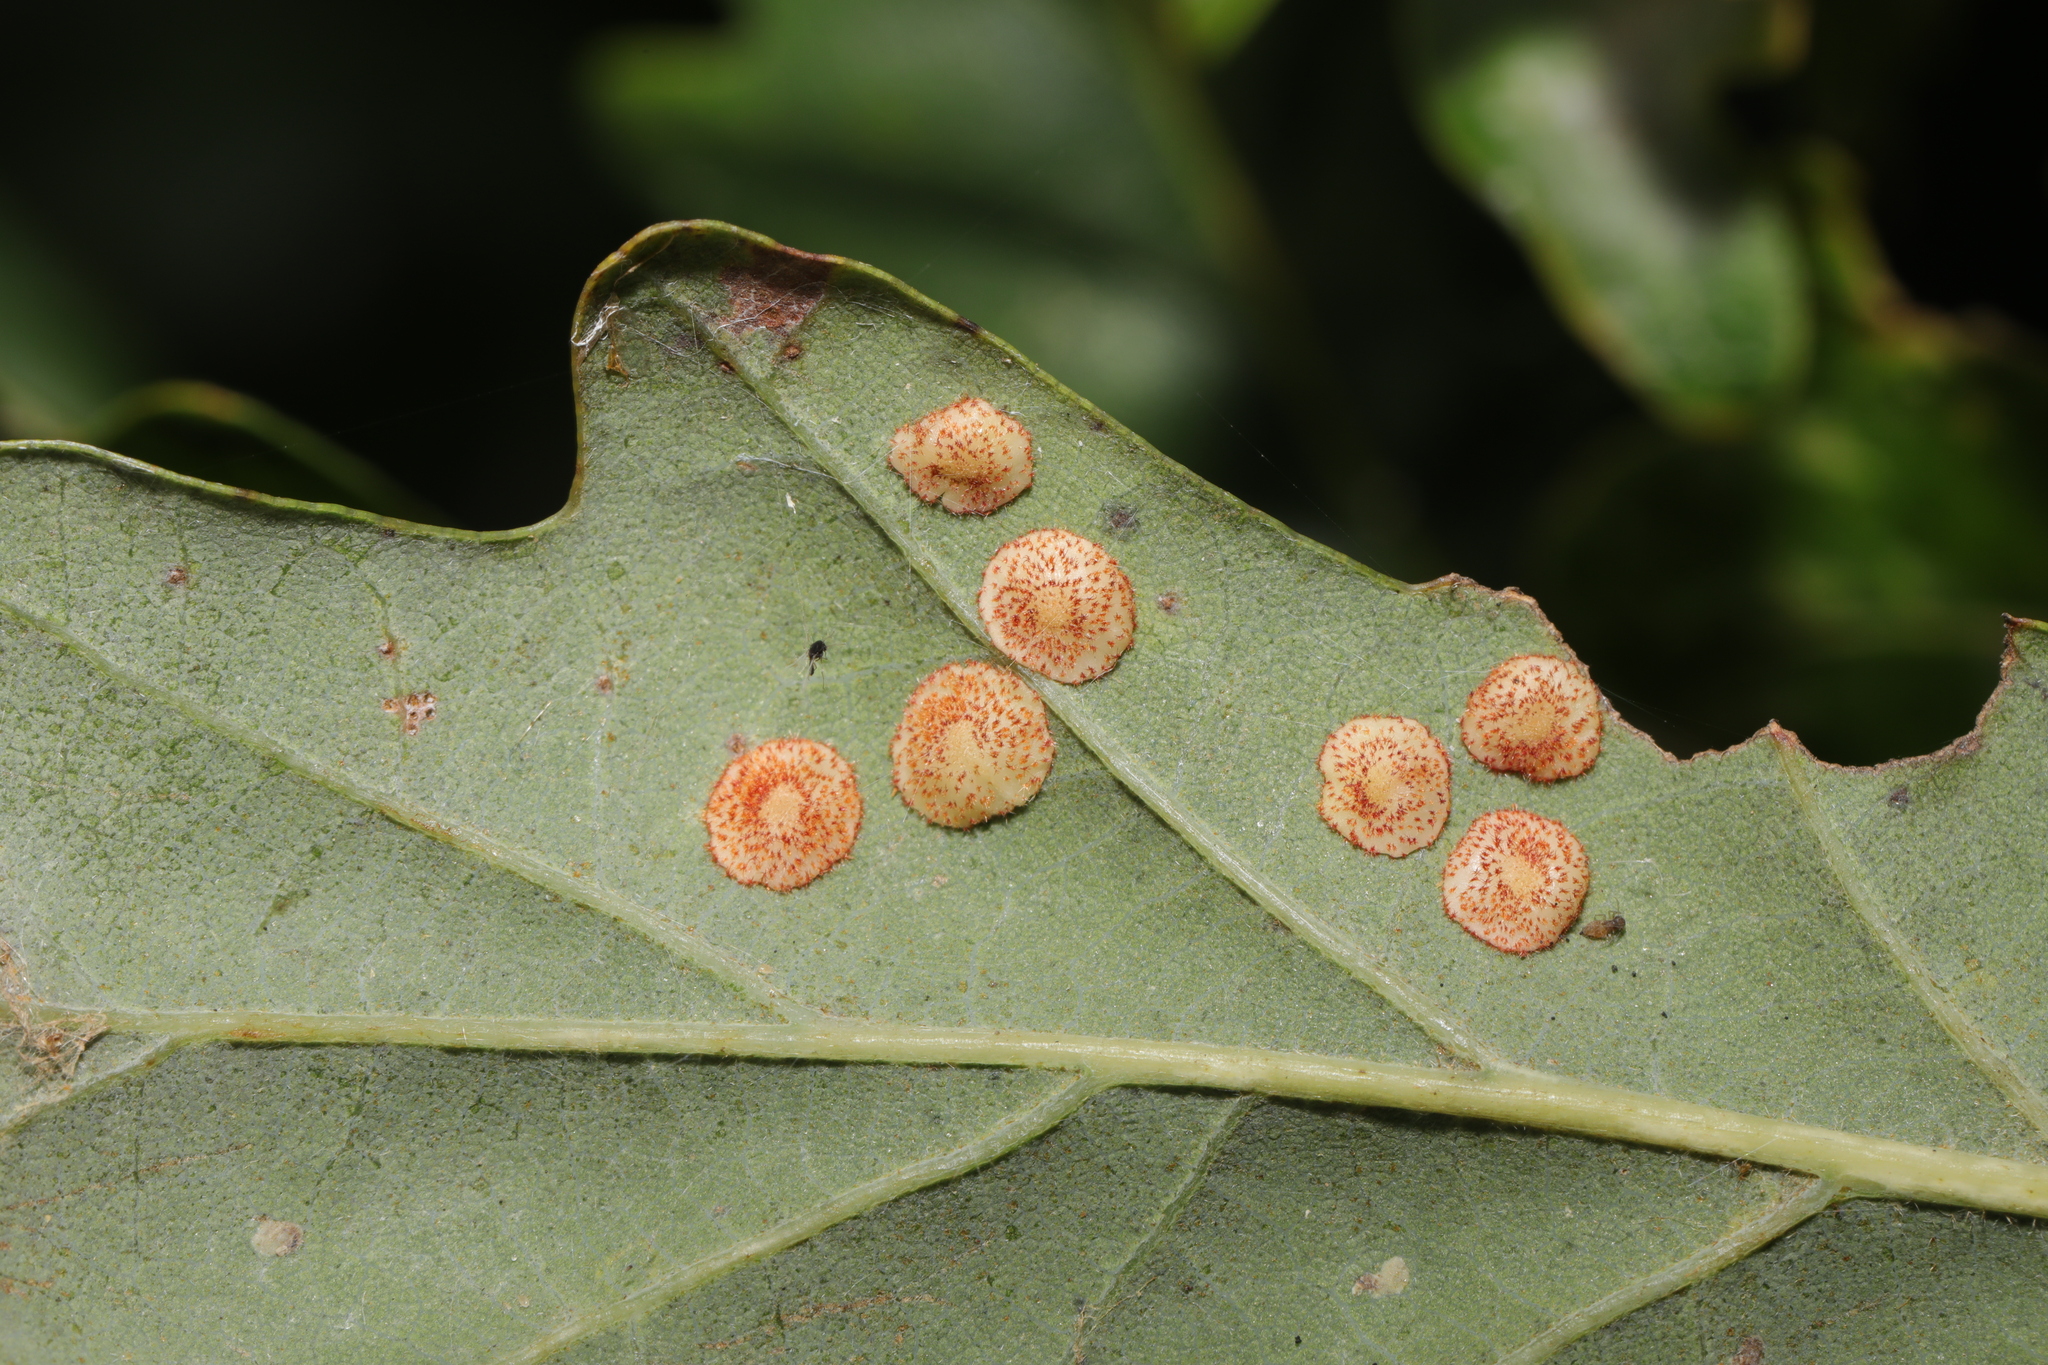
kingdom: Animalia
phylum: Arthropoda
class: Insecta
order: Hymenoptera
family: Cynipidae
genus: Neuroterus
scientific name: Neuroterus quercusbaccarum
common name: Common spangle gall
